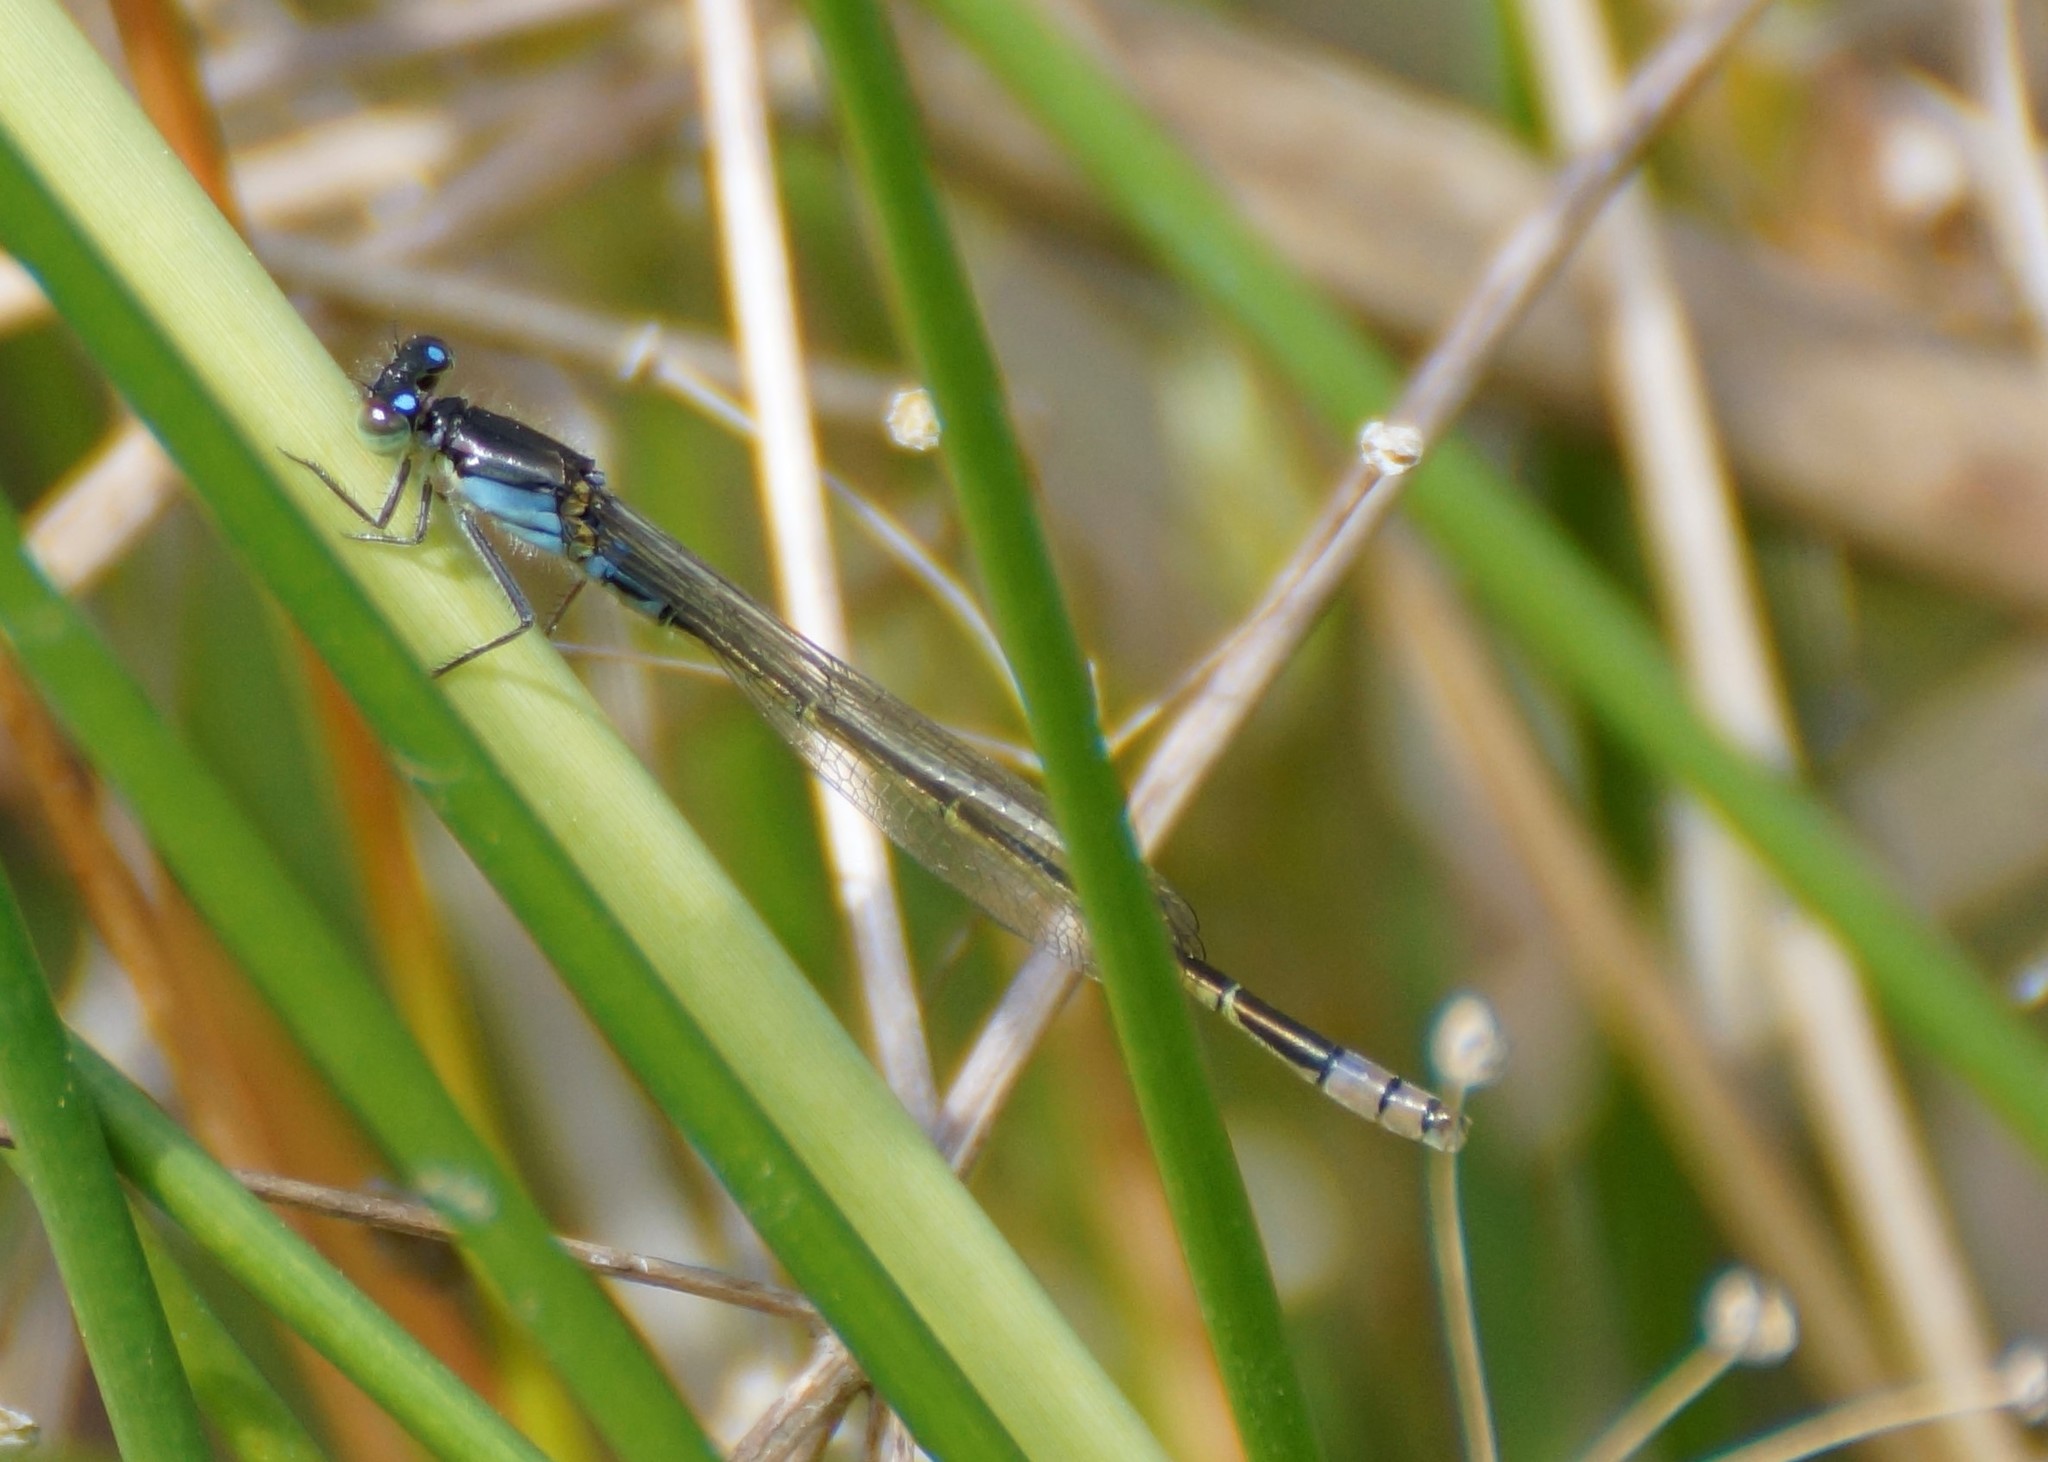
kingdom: Animalia
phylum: Arthropoda
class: Insecta
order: Odonata
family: Coenagrionidae
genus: Ischnura
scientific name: Ischnura heterosticta
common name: Common bluetail
